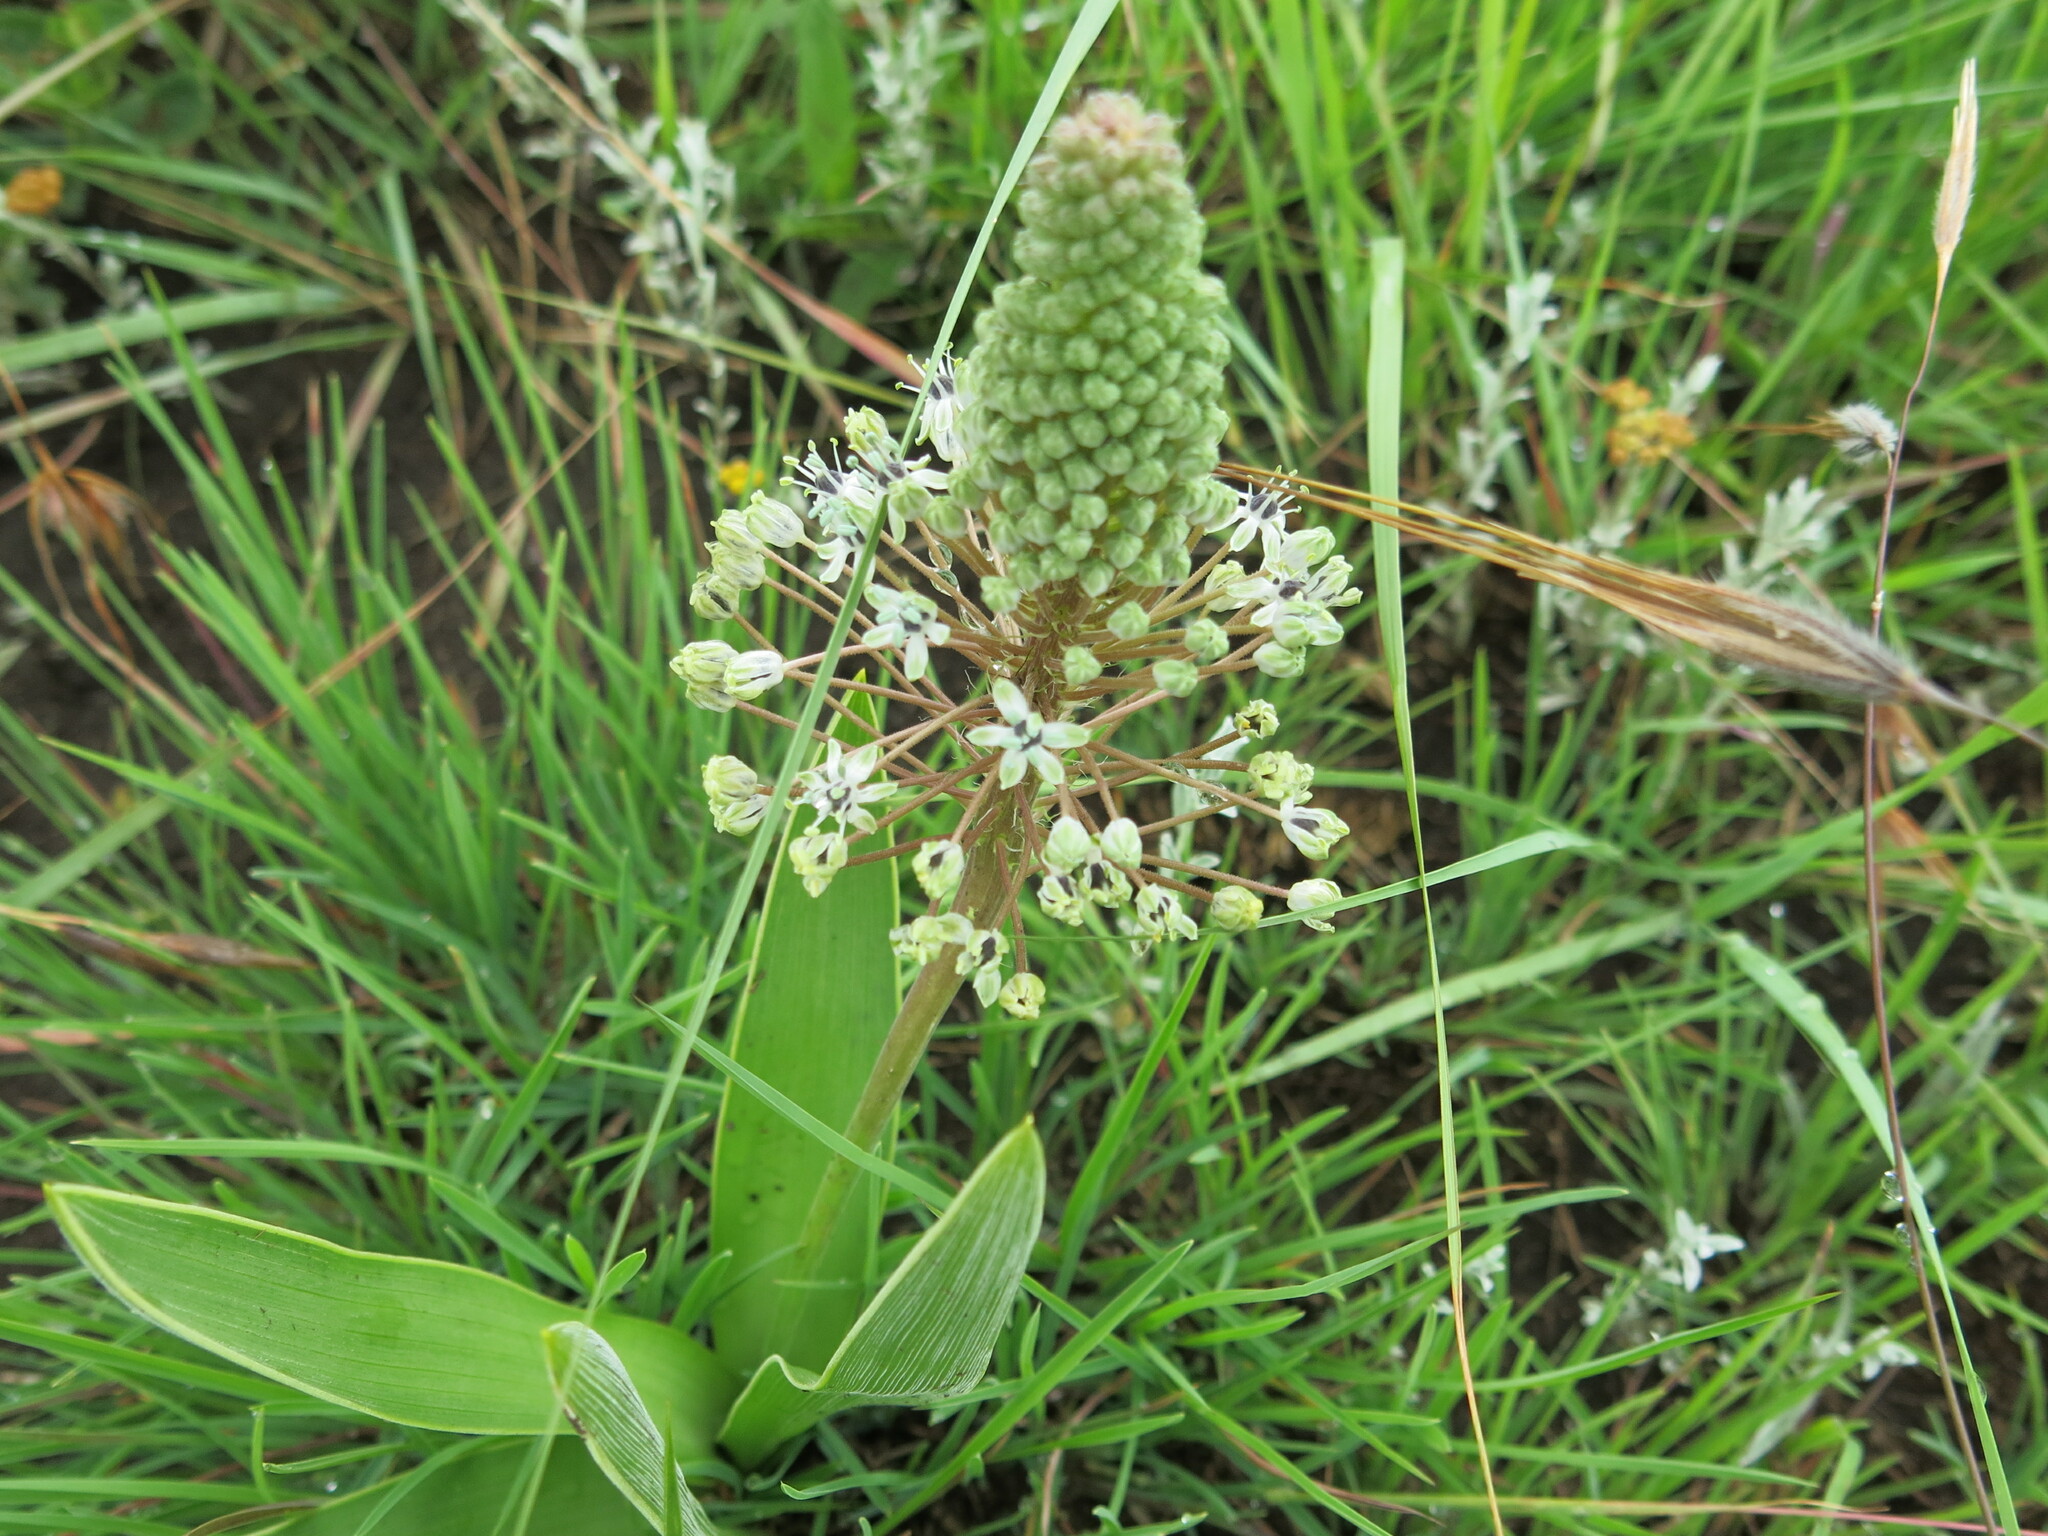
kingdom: Plantae
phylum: Tracheophyta
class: Liliopsida
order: Asparagales
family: Asparagaceae
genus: Schizocarphus
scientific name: Schizocarphus nervosus
